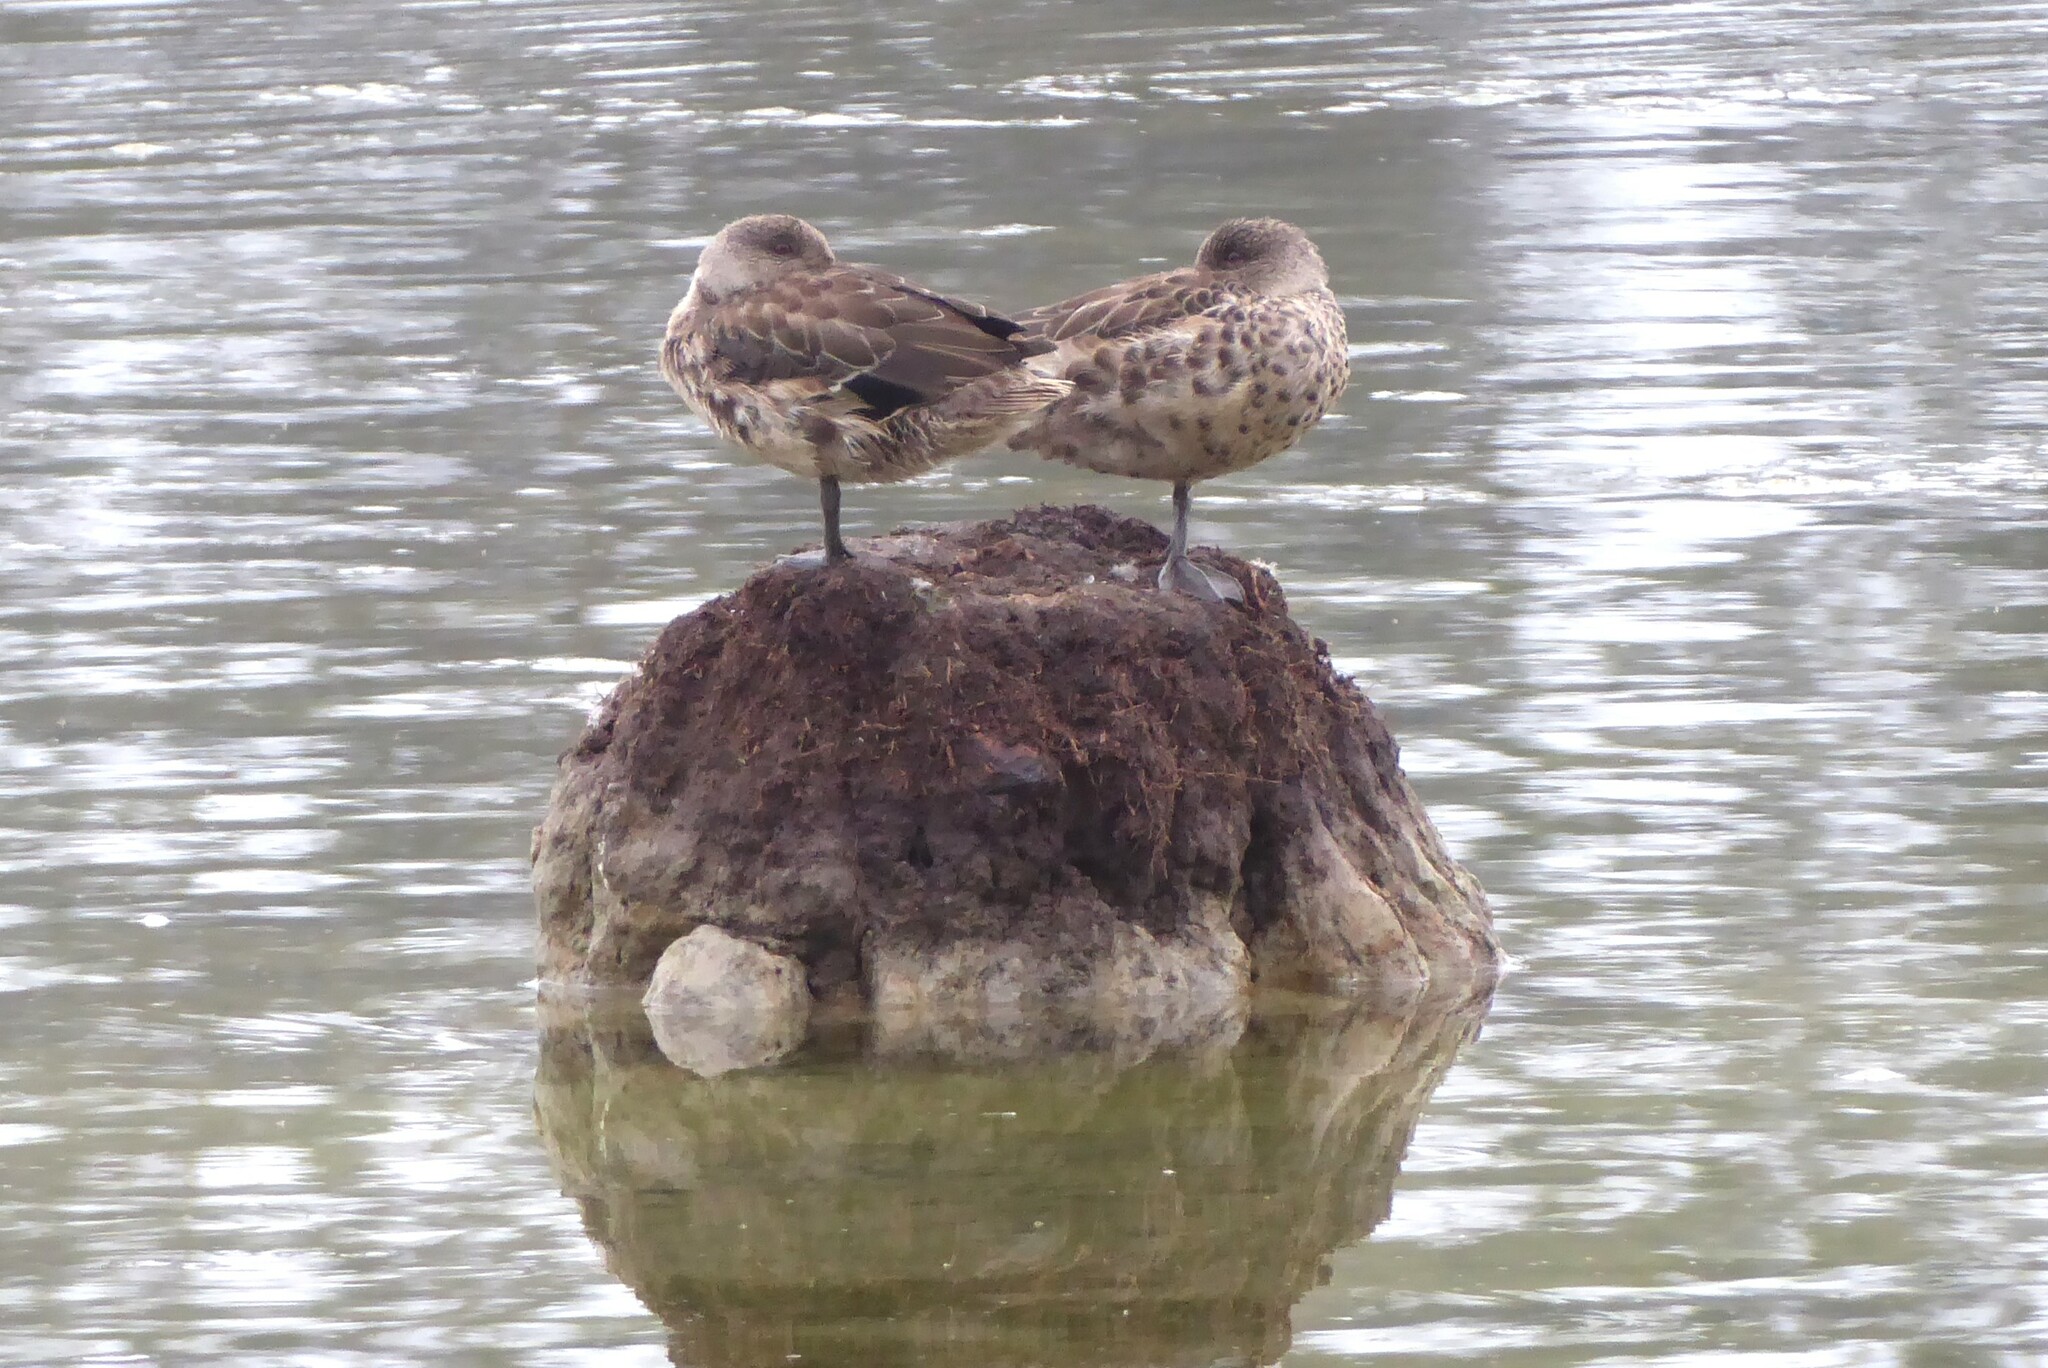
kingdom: Animalia
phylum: Chordata
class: Aves
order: Anseriformes
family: Anatidae
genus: Anas
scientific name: Anas gracilis
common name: Grey teal
